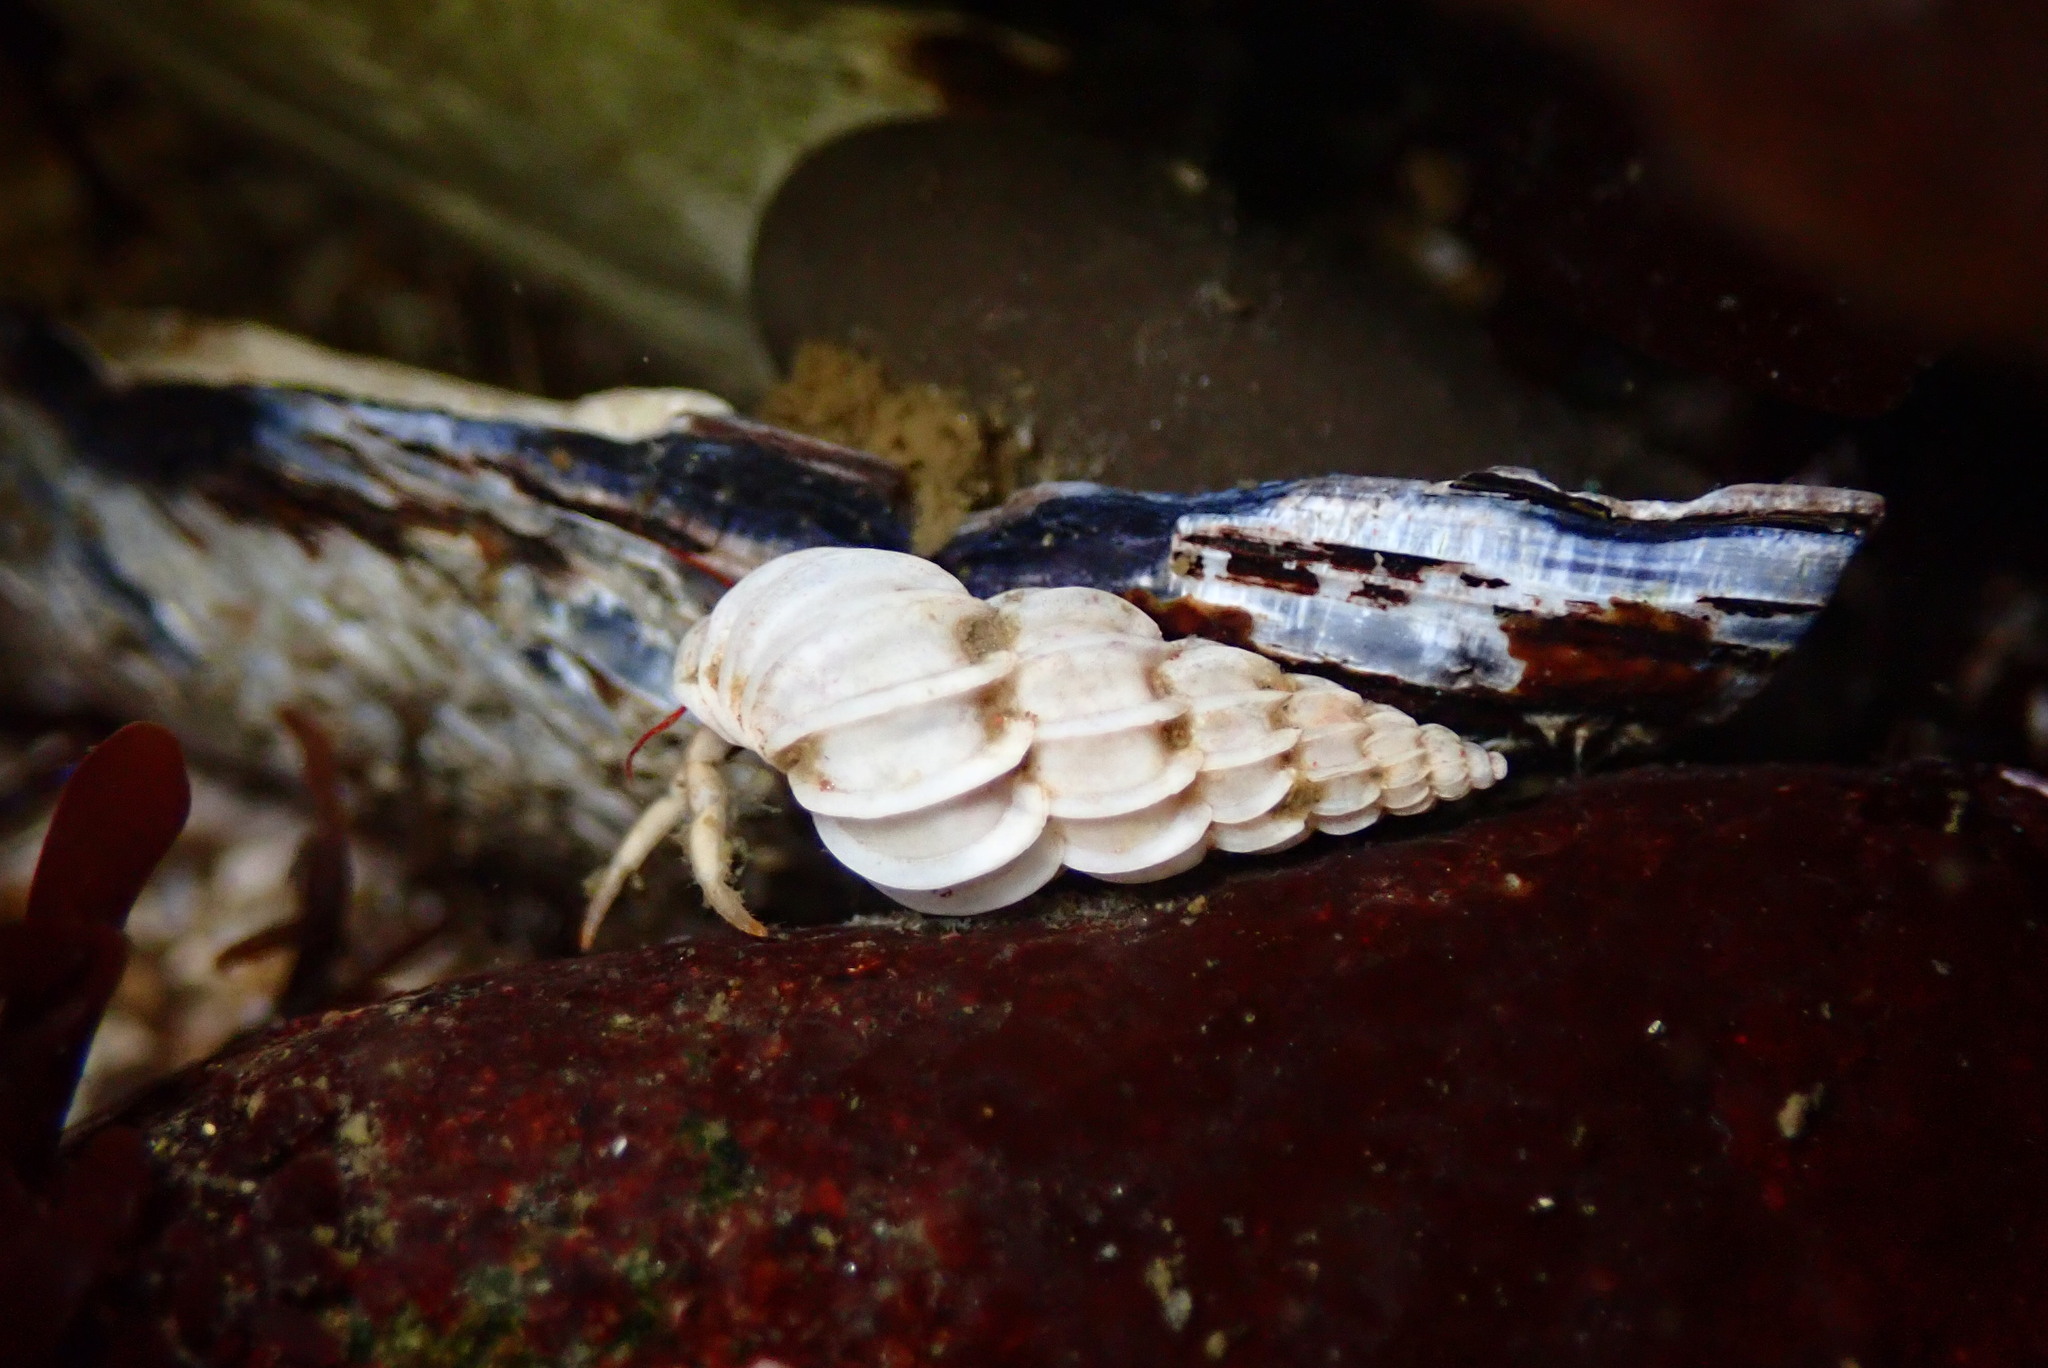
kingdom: Animalia
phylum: Mollusca
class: Gastropoda
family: Epitoniidae
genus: Epitonium
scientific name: Epitonium tinctum
